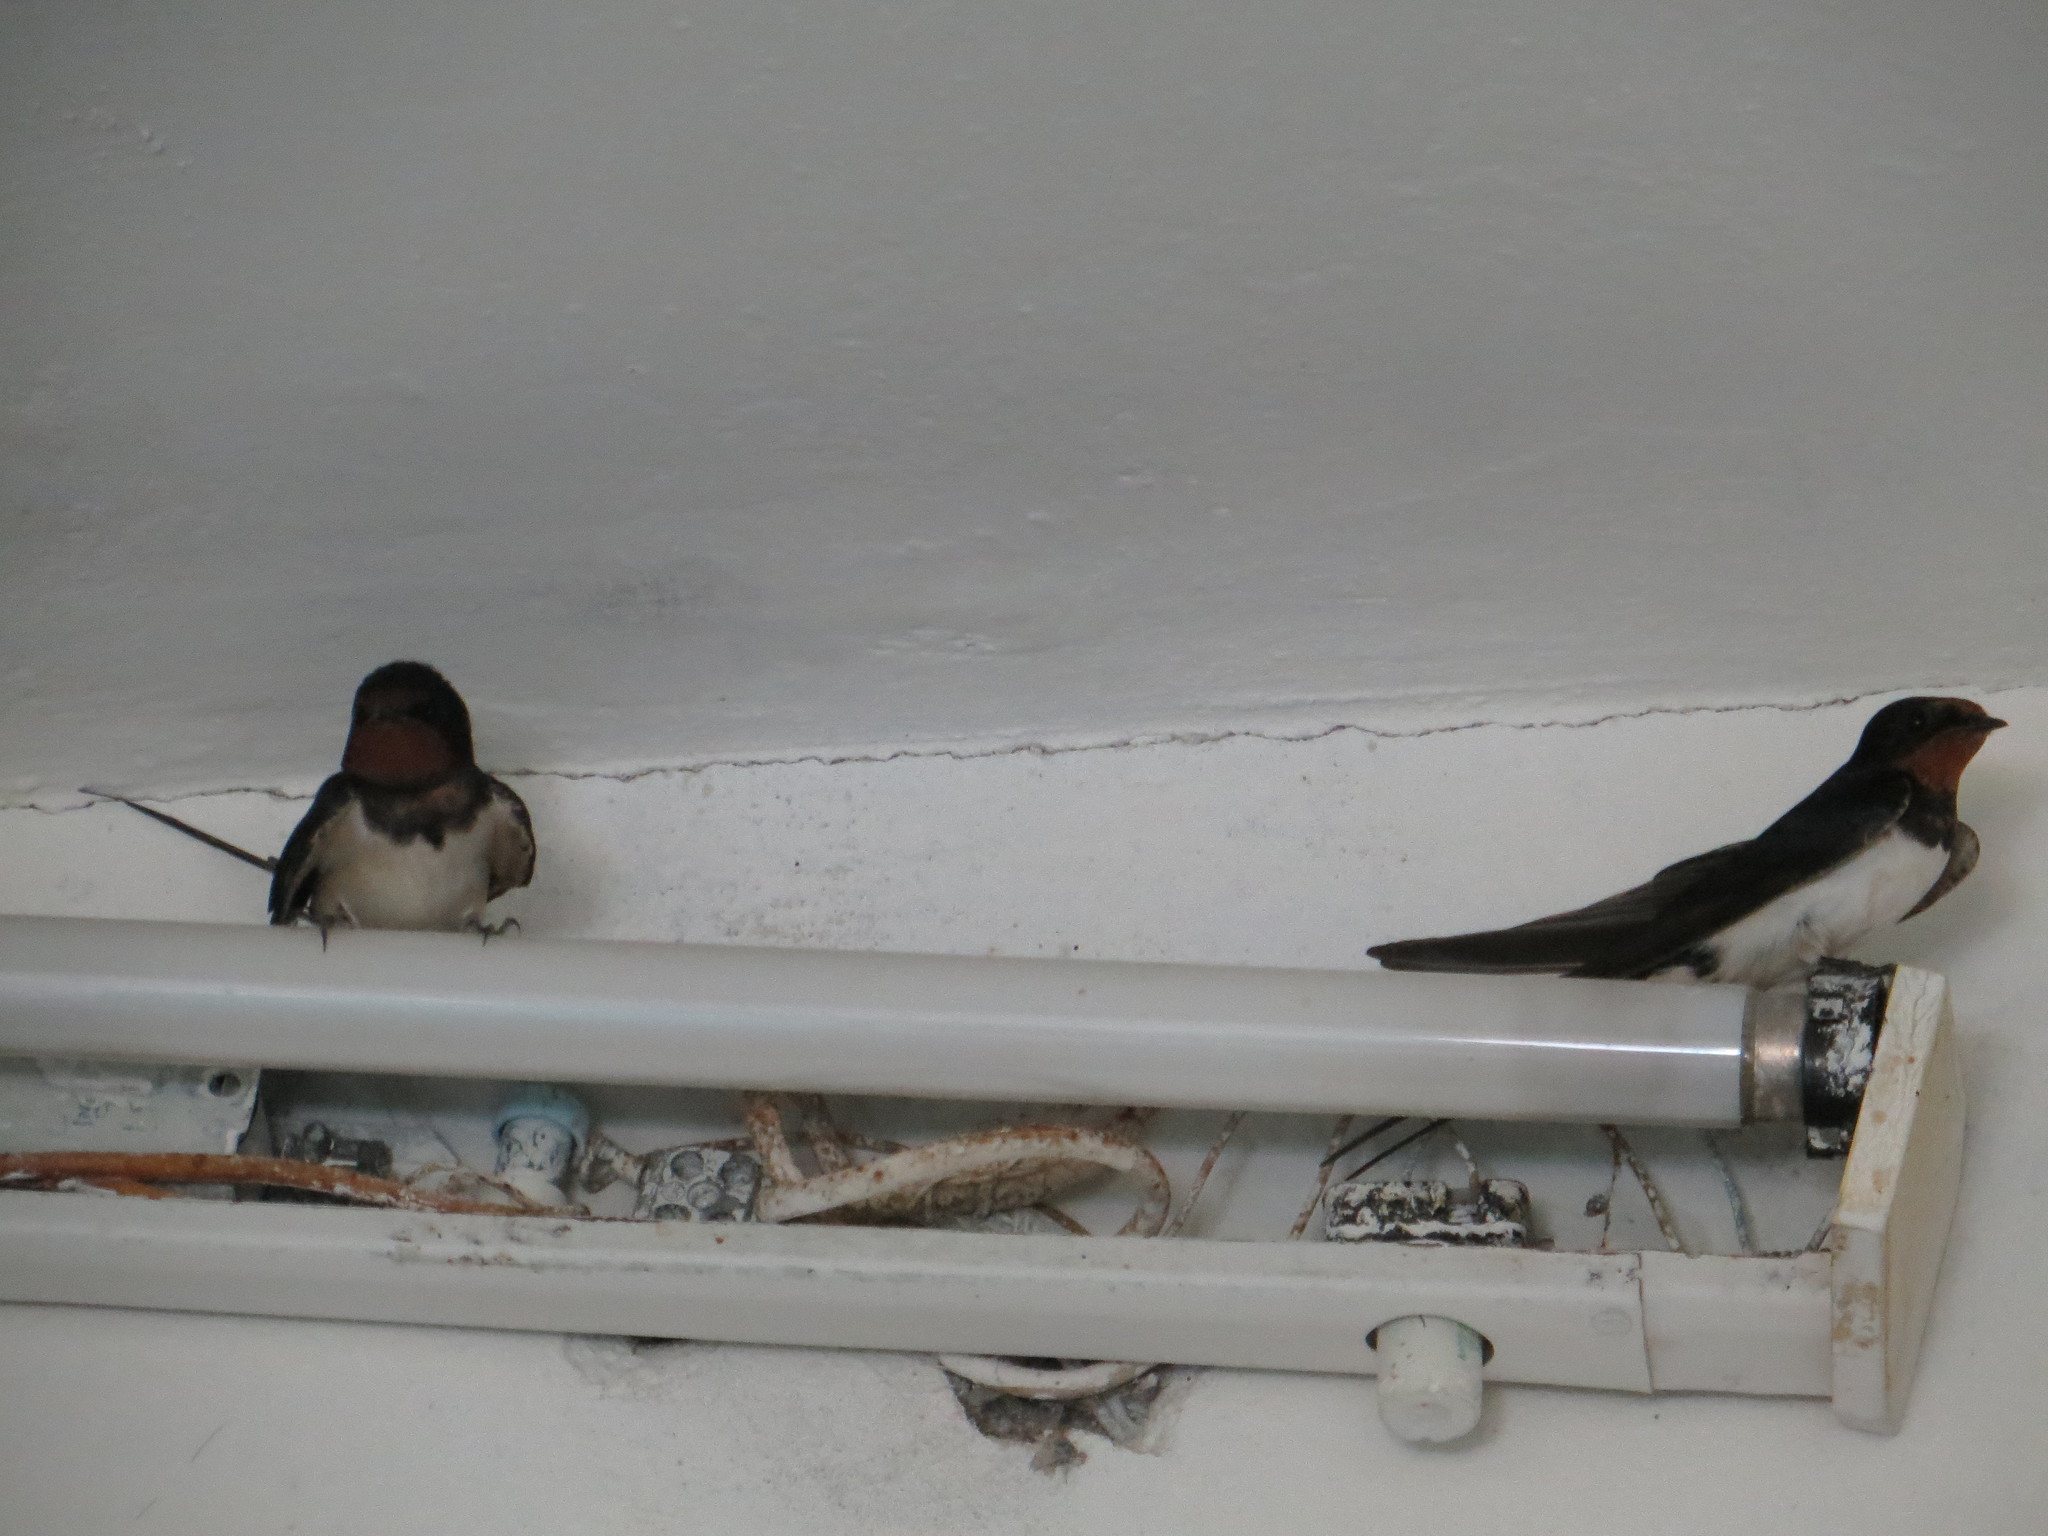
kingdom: Animalia
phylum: Chordata
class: Aves
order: Passeriformes
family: Hirundinidae
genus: Hirundo
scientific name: Hirundo rustica
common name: Barn swallow
